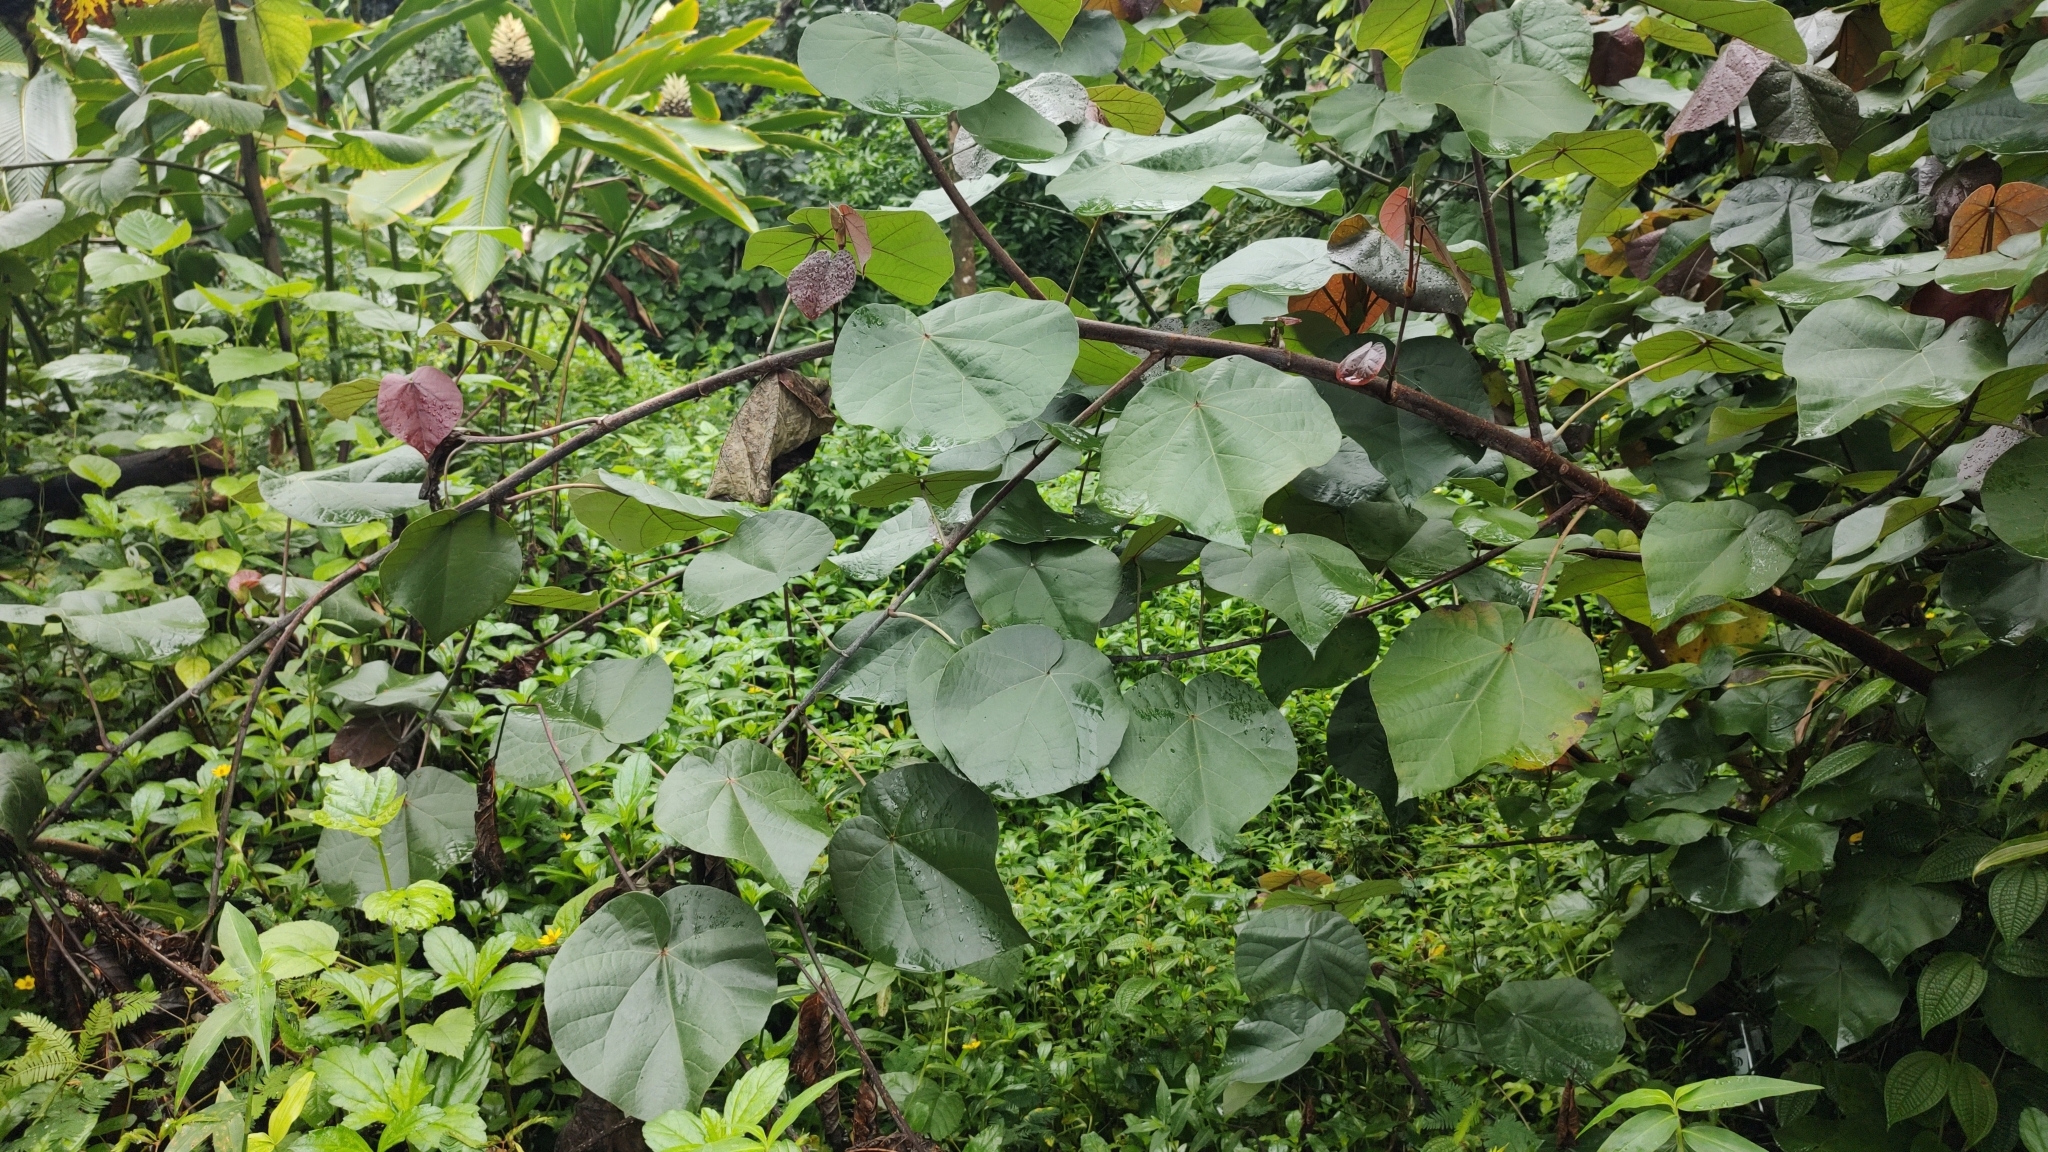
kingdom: Plantae
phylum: Tracheophyta
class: Magnoliopsida
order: Malvales
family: Malvaceae
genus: Talipariti
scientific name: Talipariti tiliaceum
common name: Sea hibiscus
